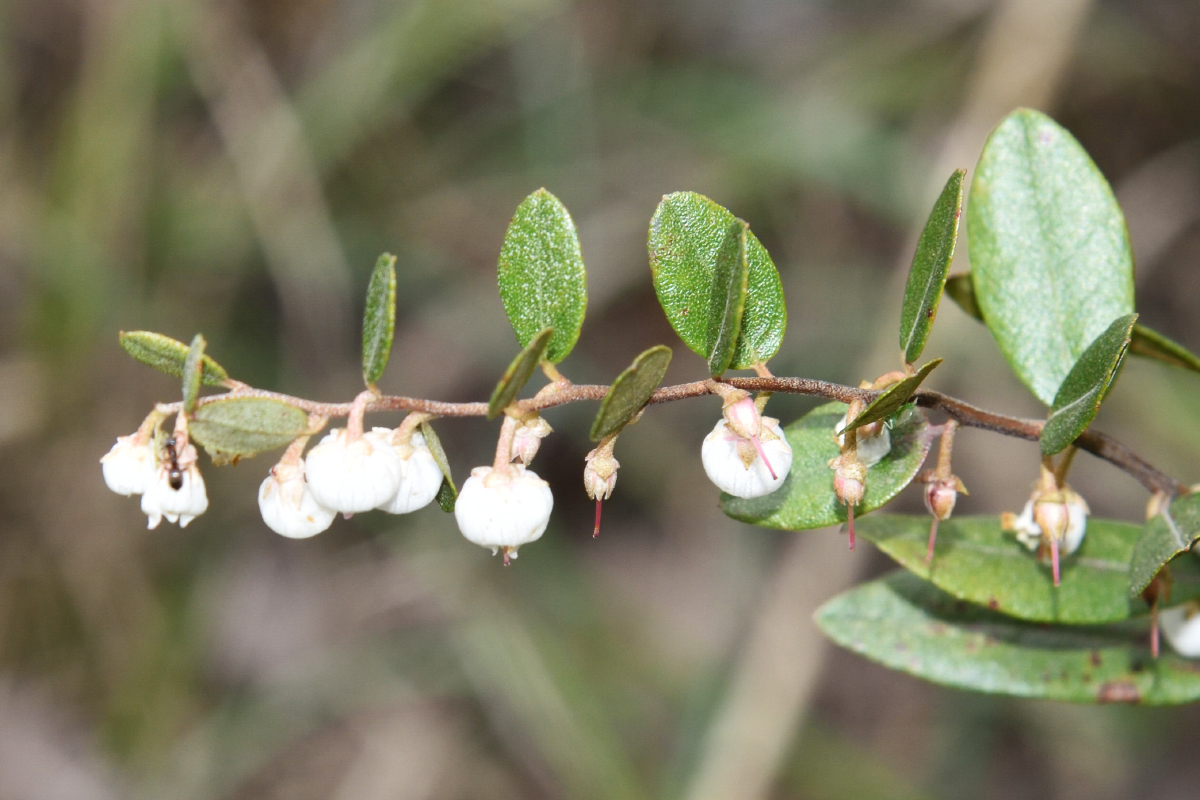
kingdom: Plantae
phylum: Tracheophyta
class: Magnoliopsida
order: Ericales
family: Ericaceae
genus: Chamaedaphne
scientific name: Chamaedaphne calyculata
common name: Leatherleaf
